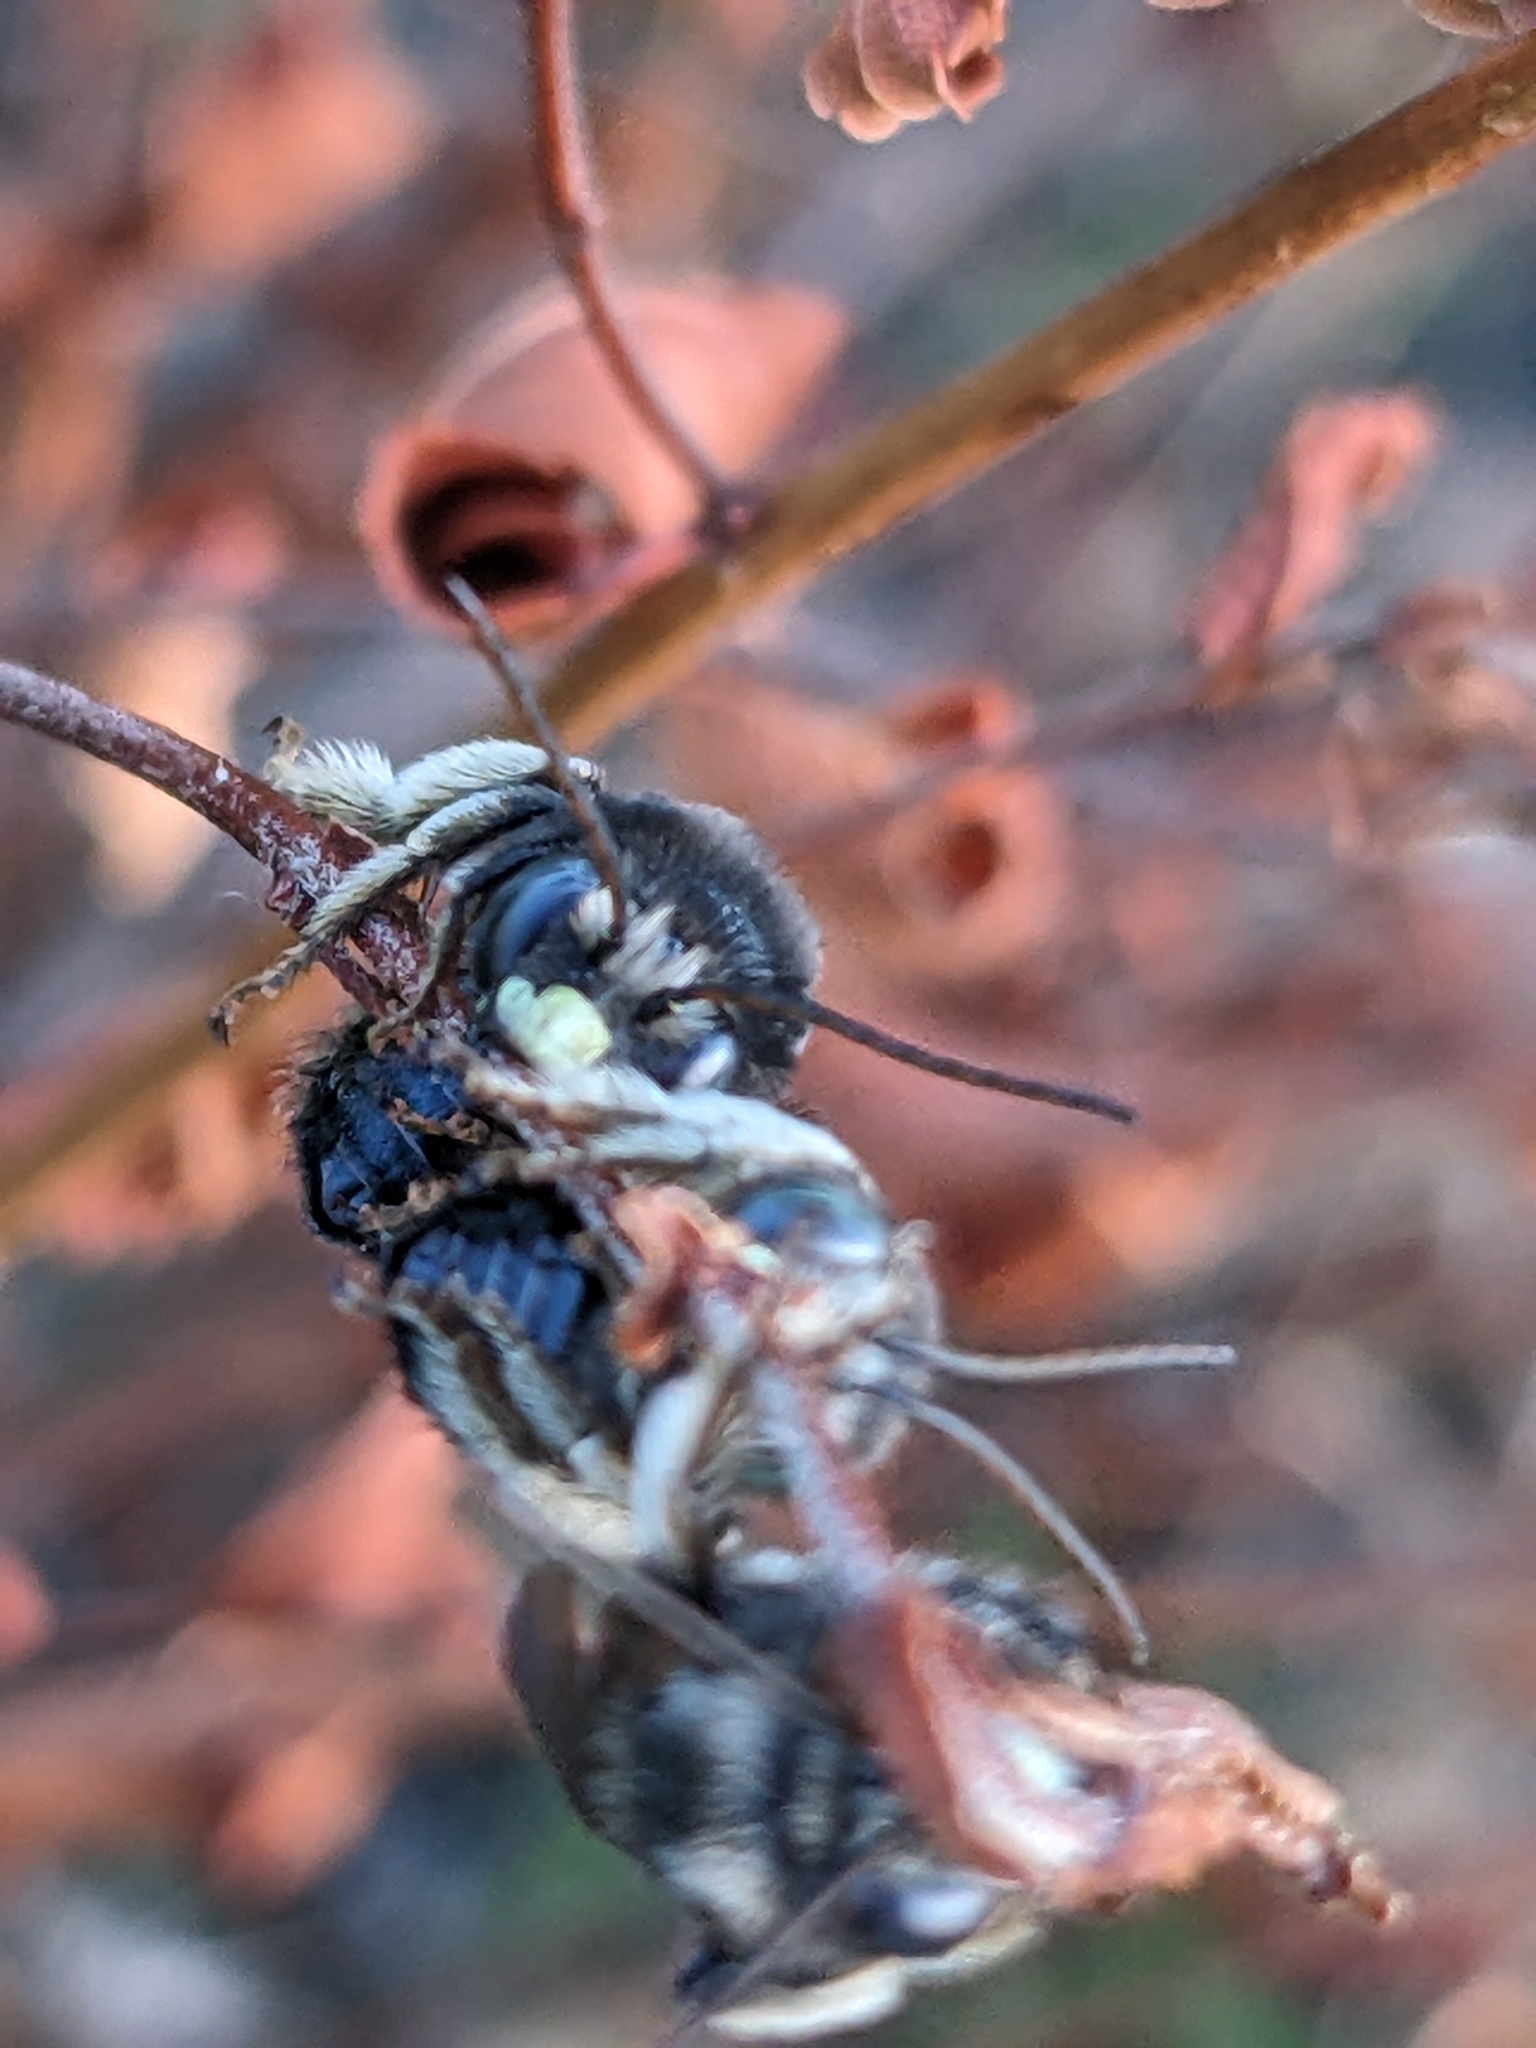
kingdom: Animalia
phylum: Arthropoda
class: Insecta
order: Hymenoptera
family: Apidae
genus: Melissodes
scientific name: Melissodes bimaculatus
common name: Two-spotted long-horned bee
